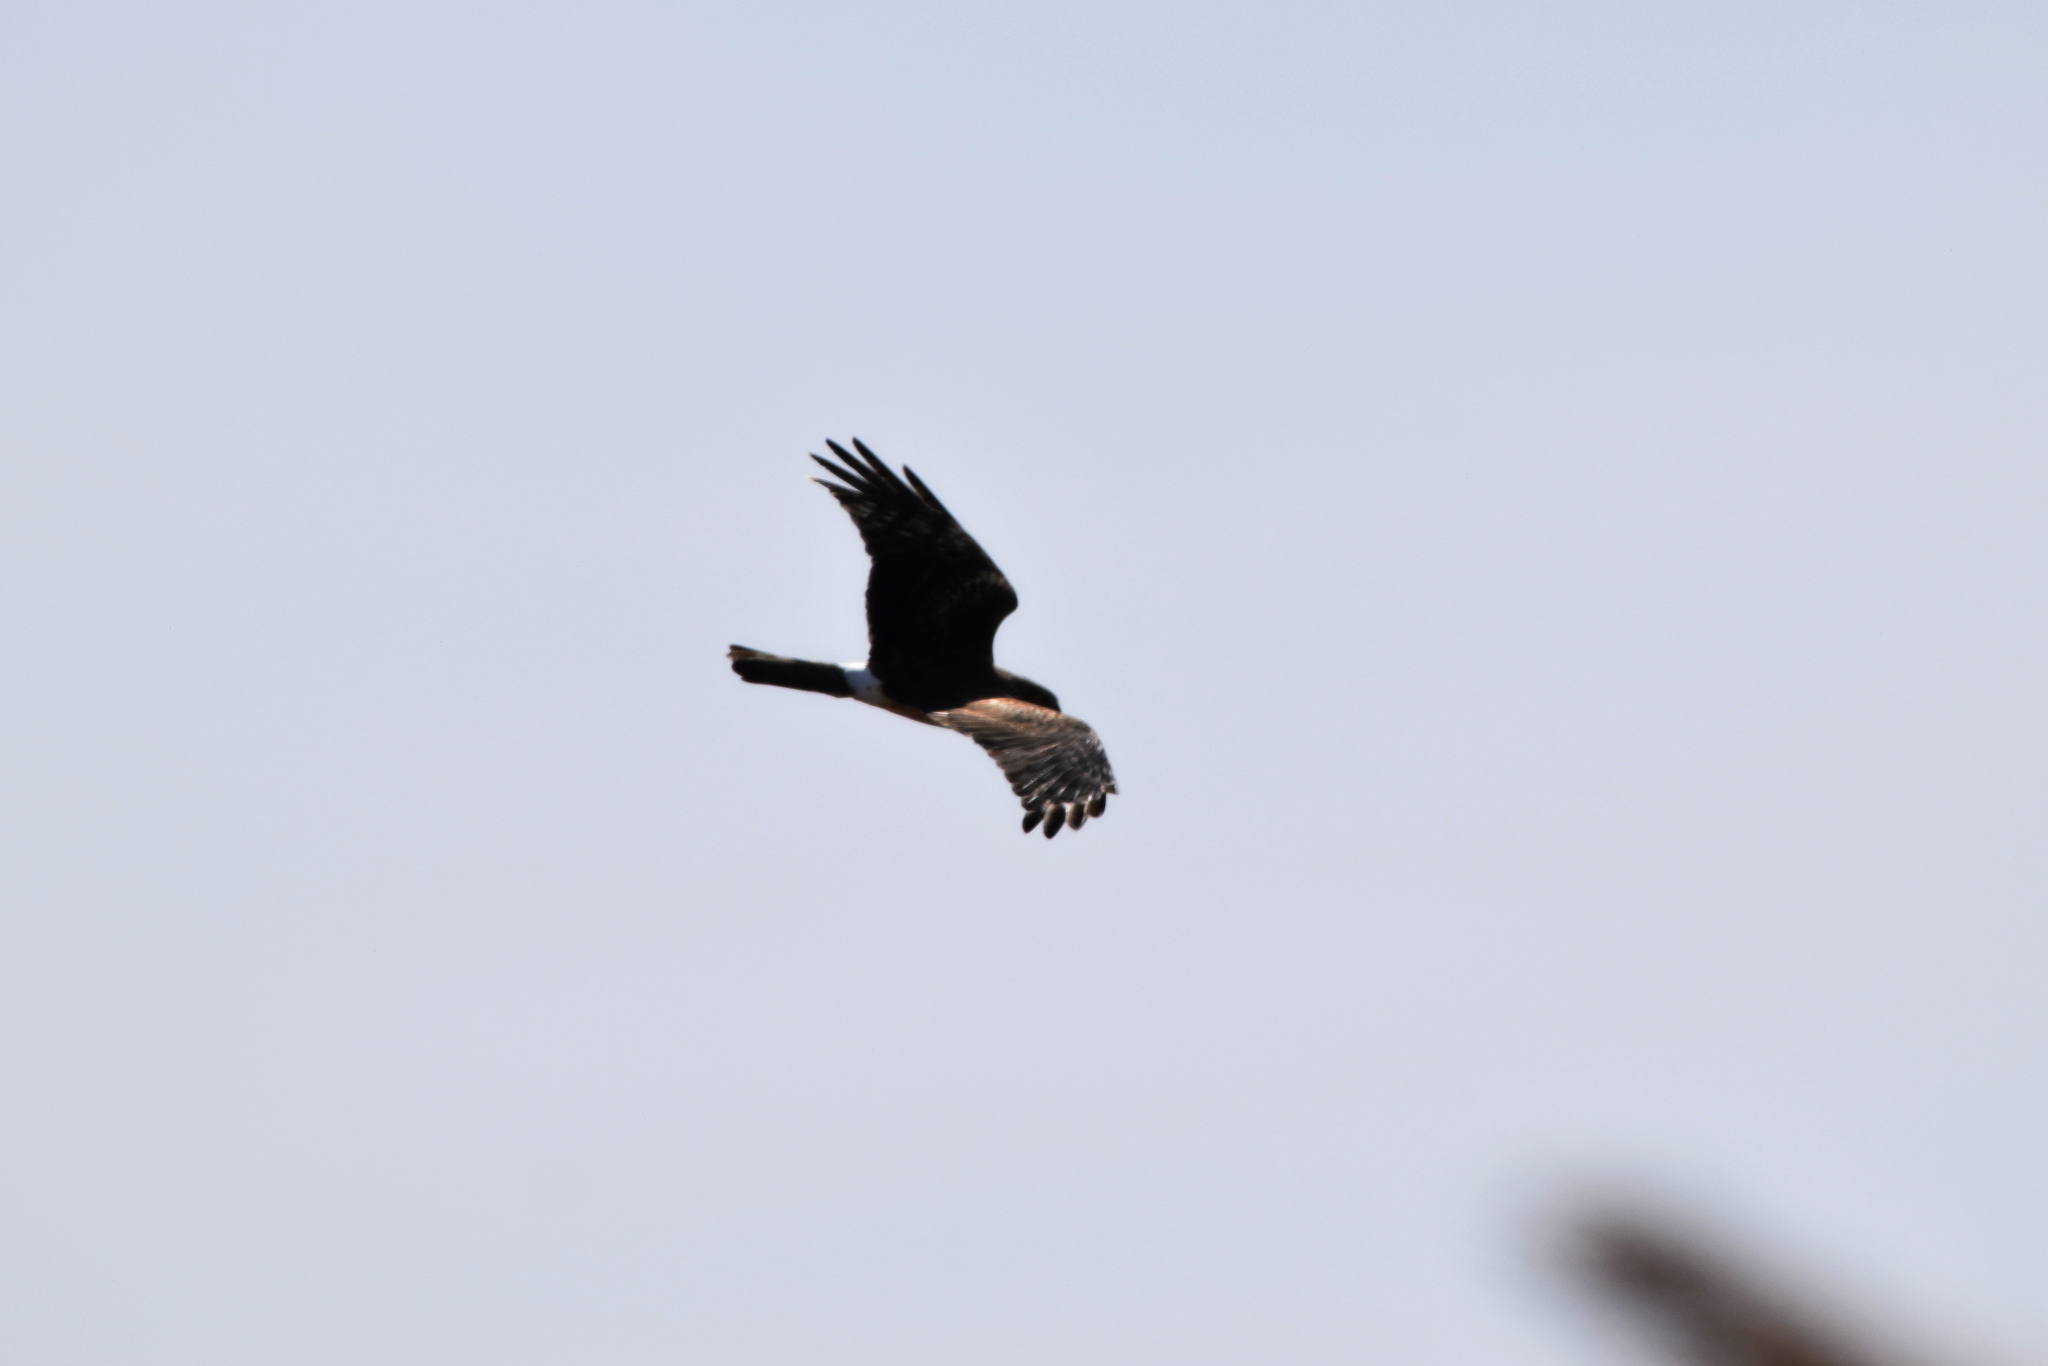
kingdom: Animalia
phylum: Chordata
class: Aves
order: Accipitriformes
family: Accipitridae
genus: Circus
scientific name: Circus cyaneus
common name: Hen harrier
